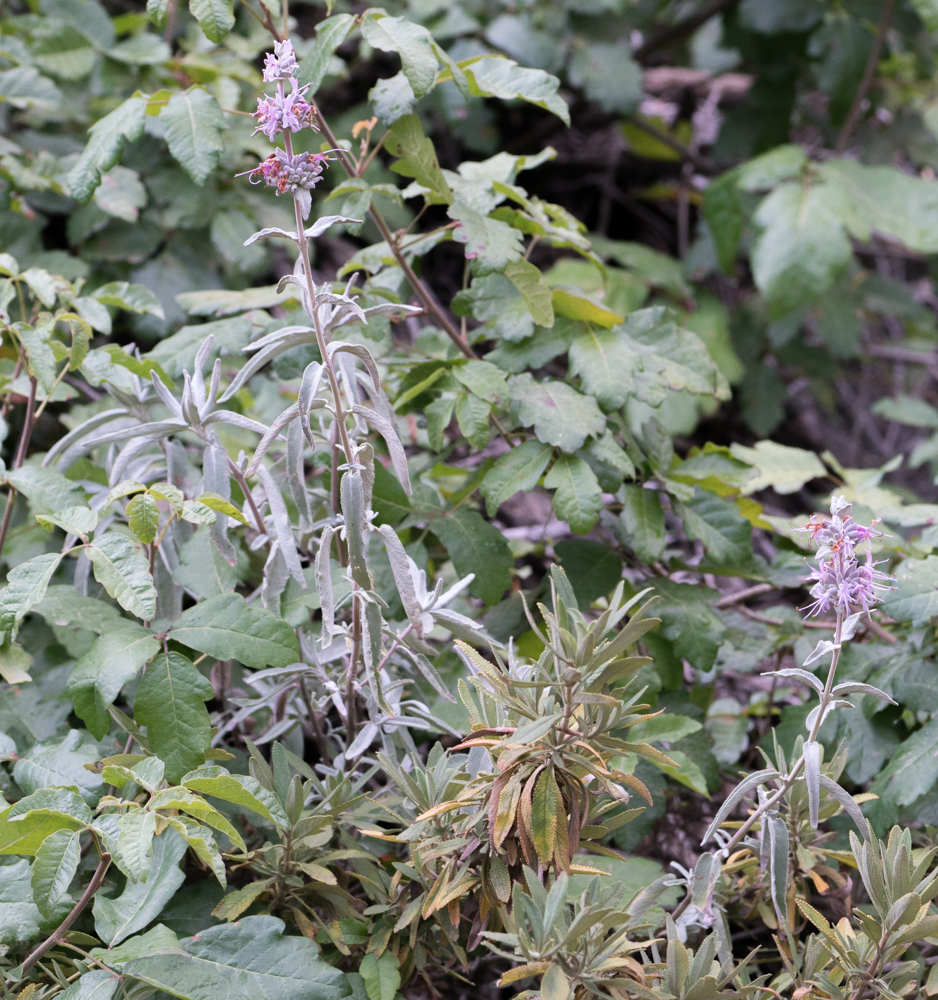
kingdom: Plantae
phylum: Tracheophyta
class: Magnoliopsida
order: Lamiales
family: Lamiaceae
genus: Salvia
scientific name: Salvia leucophylla
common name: Purple sage
